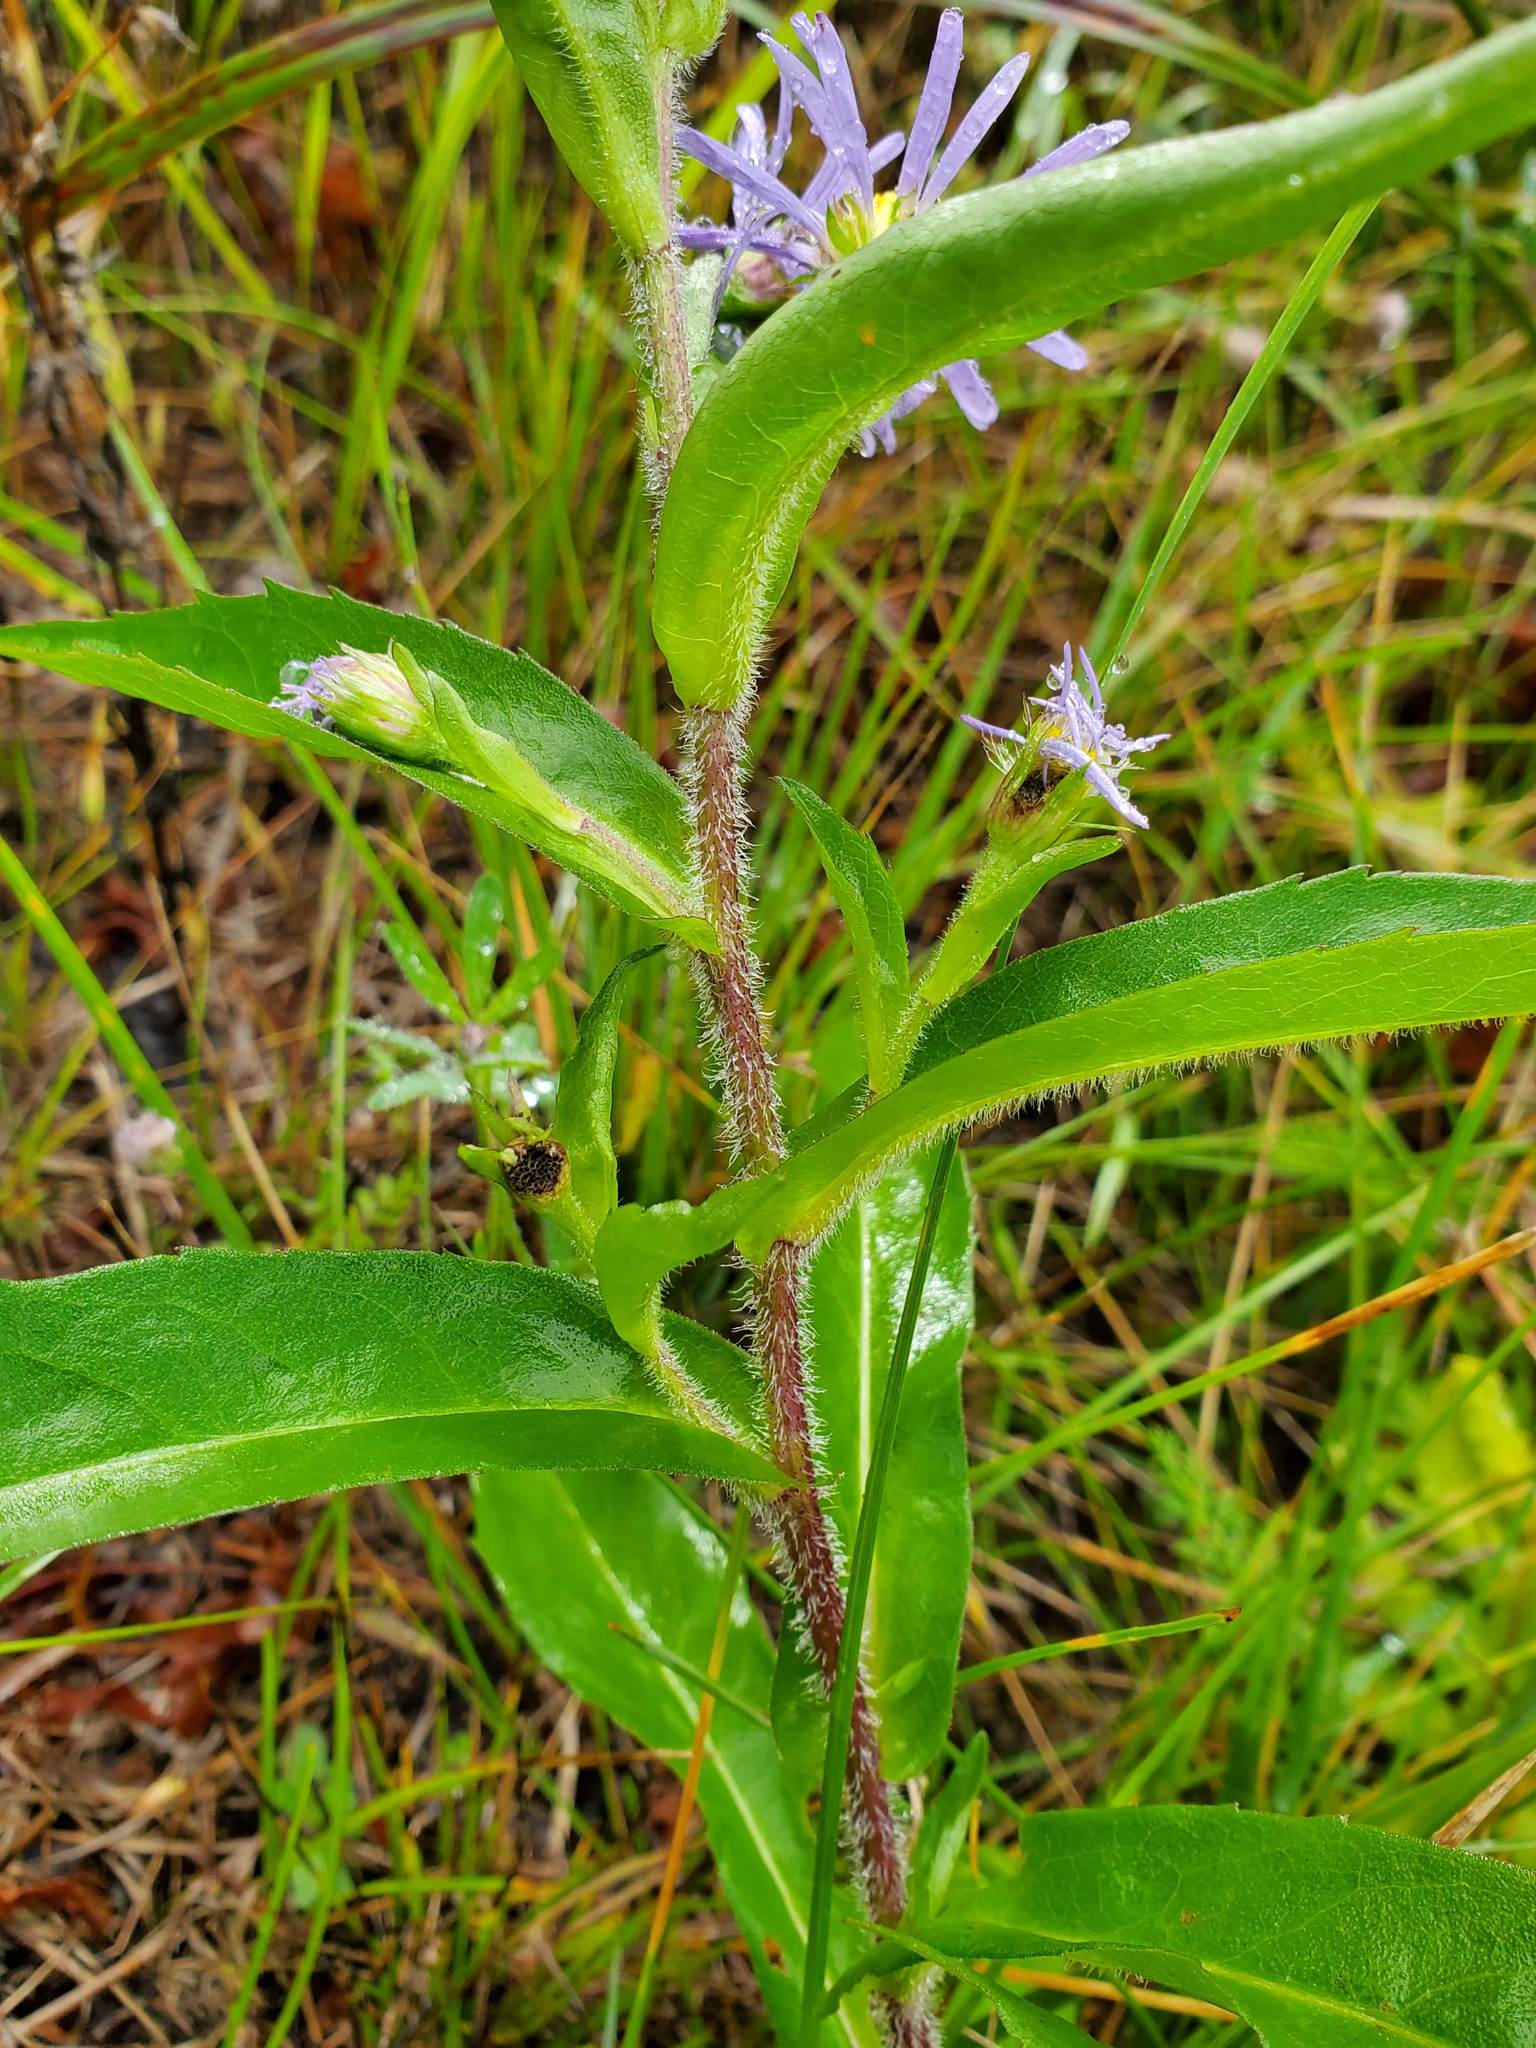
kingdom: Plantae
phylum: Tracheophyta
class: Magnoliopsida
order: Asterales
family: Asteraceae
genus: Symphyotrichum
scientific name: Symphyotrichum puniceum
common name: Bog aster
